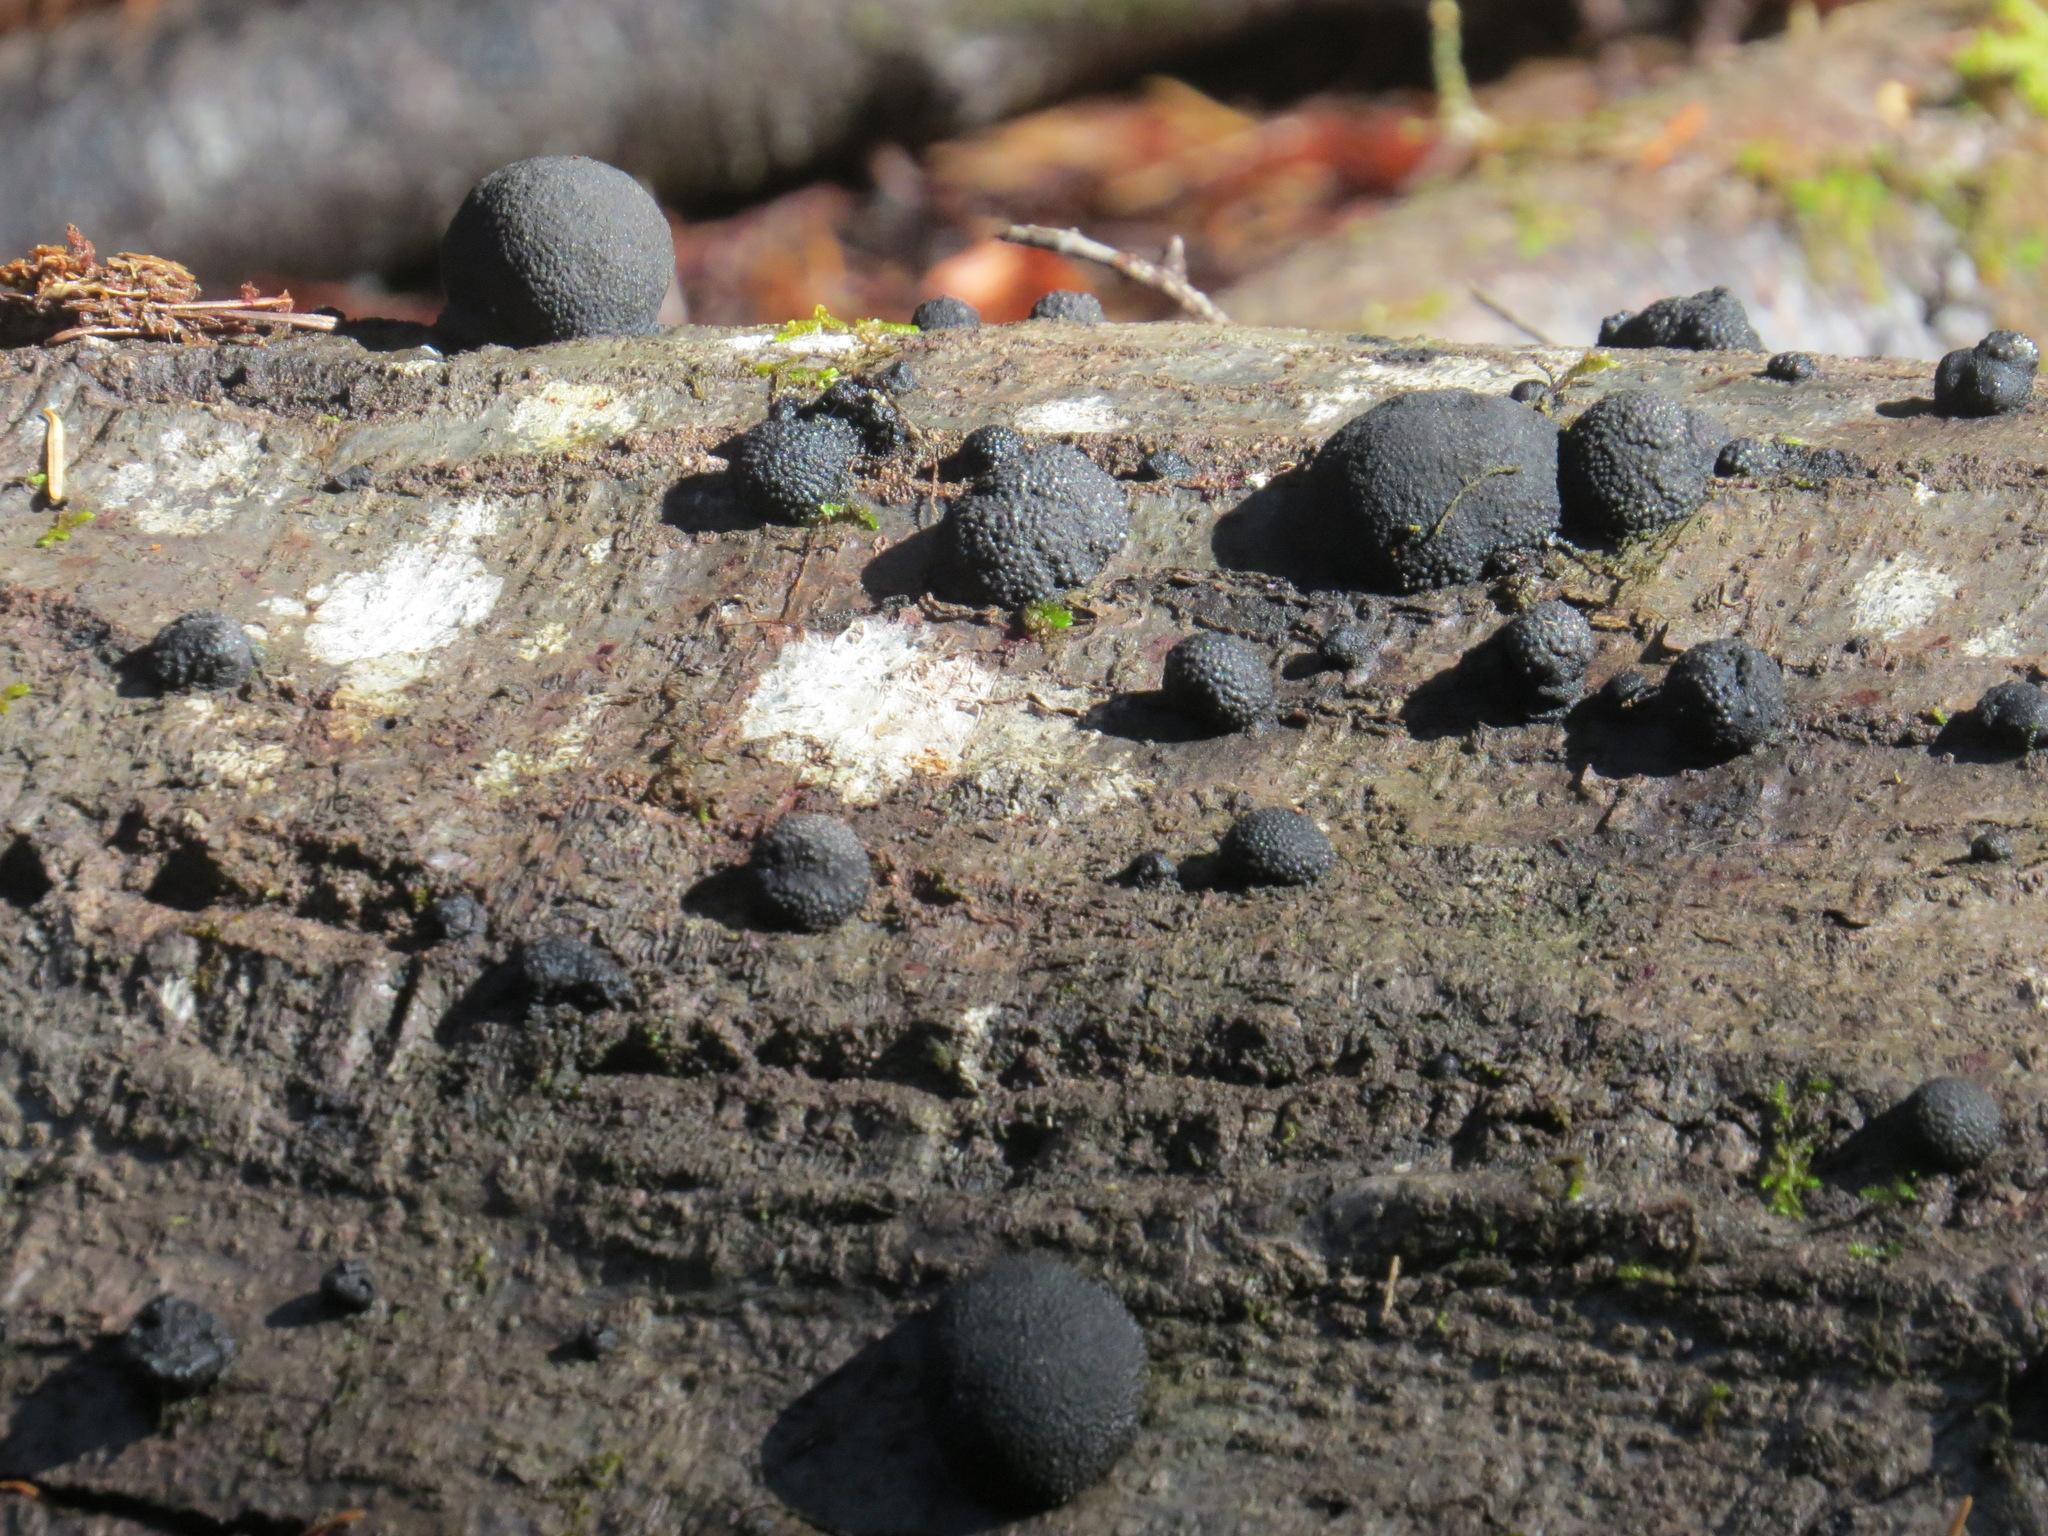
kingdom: Fungi
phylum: Ascomycota
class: Sordariomycetes
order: Xylariales
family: Hypoxylaceae
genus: Annulohypoxylon
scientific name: Annulohypoxylon thouarsianum
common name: Cramp balls
